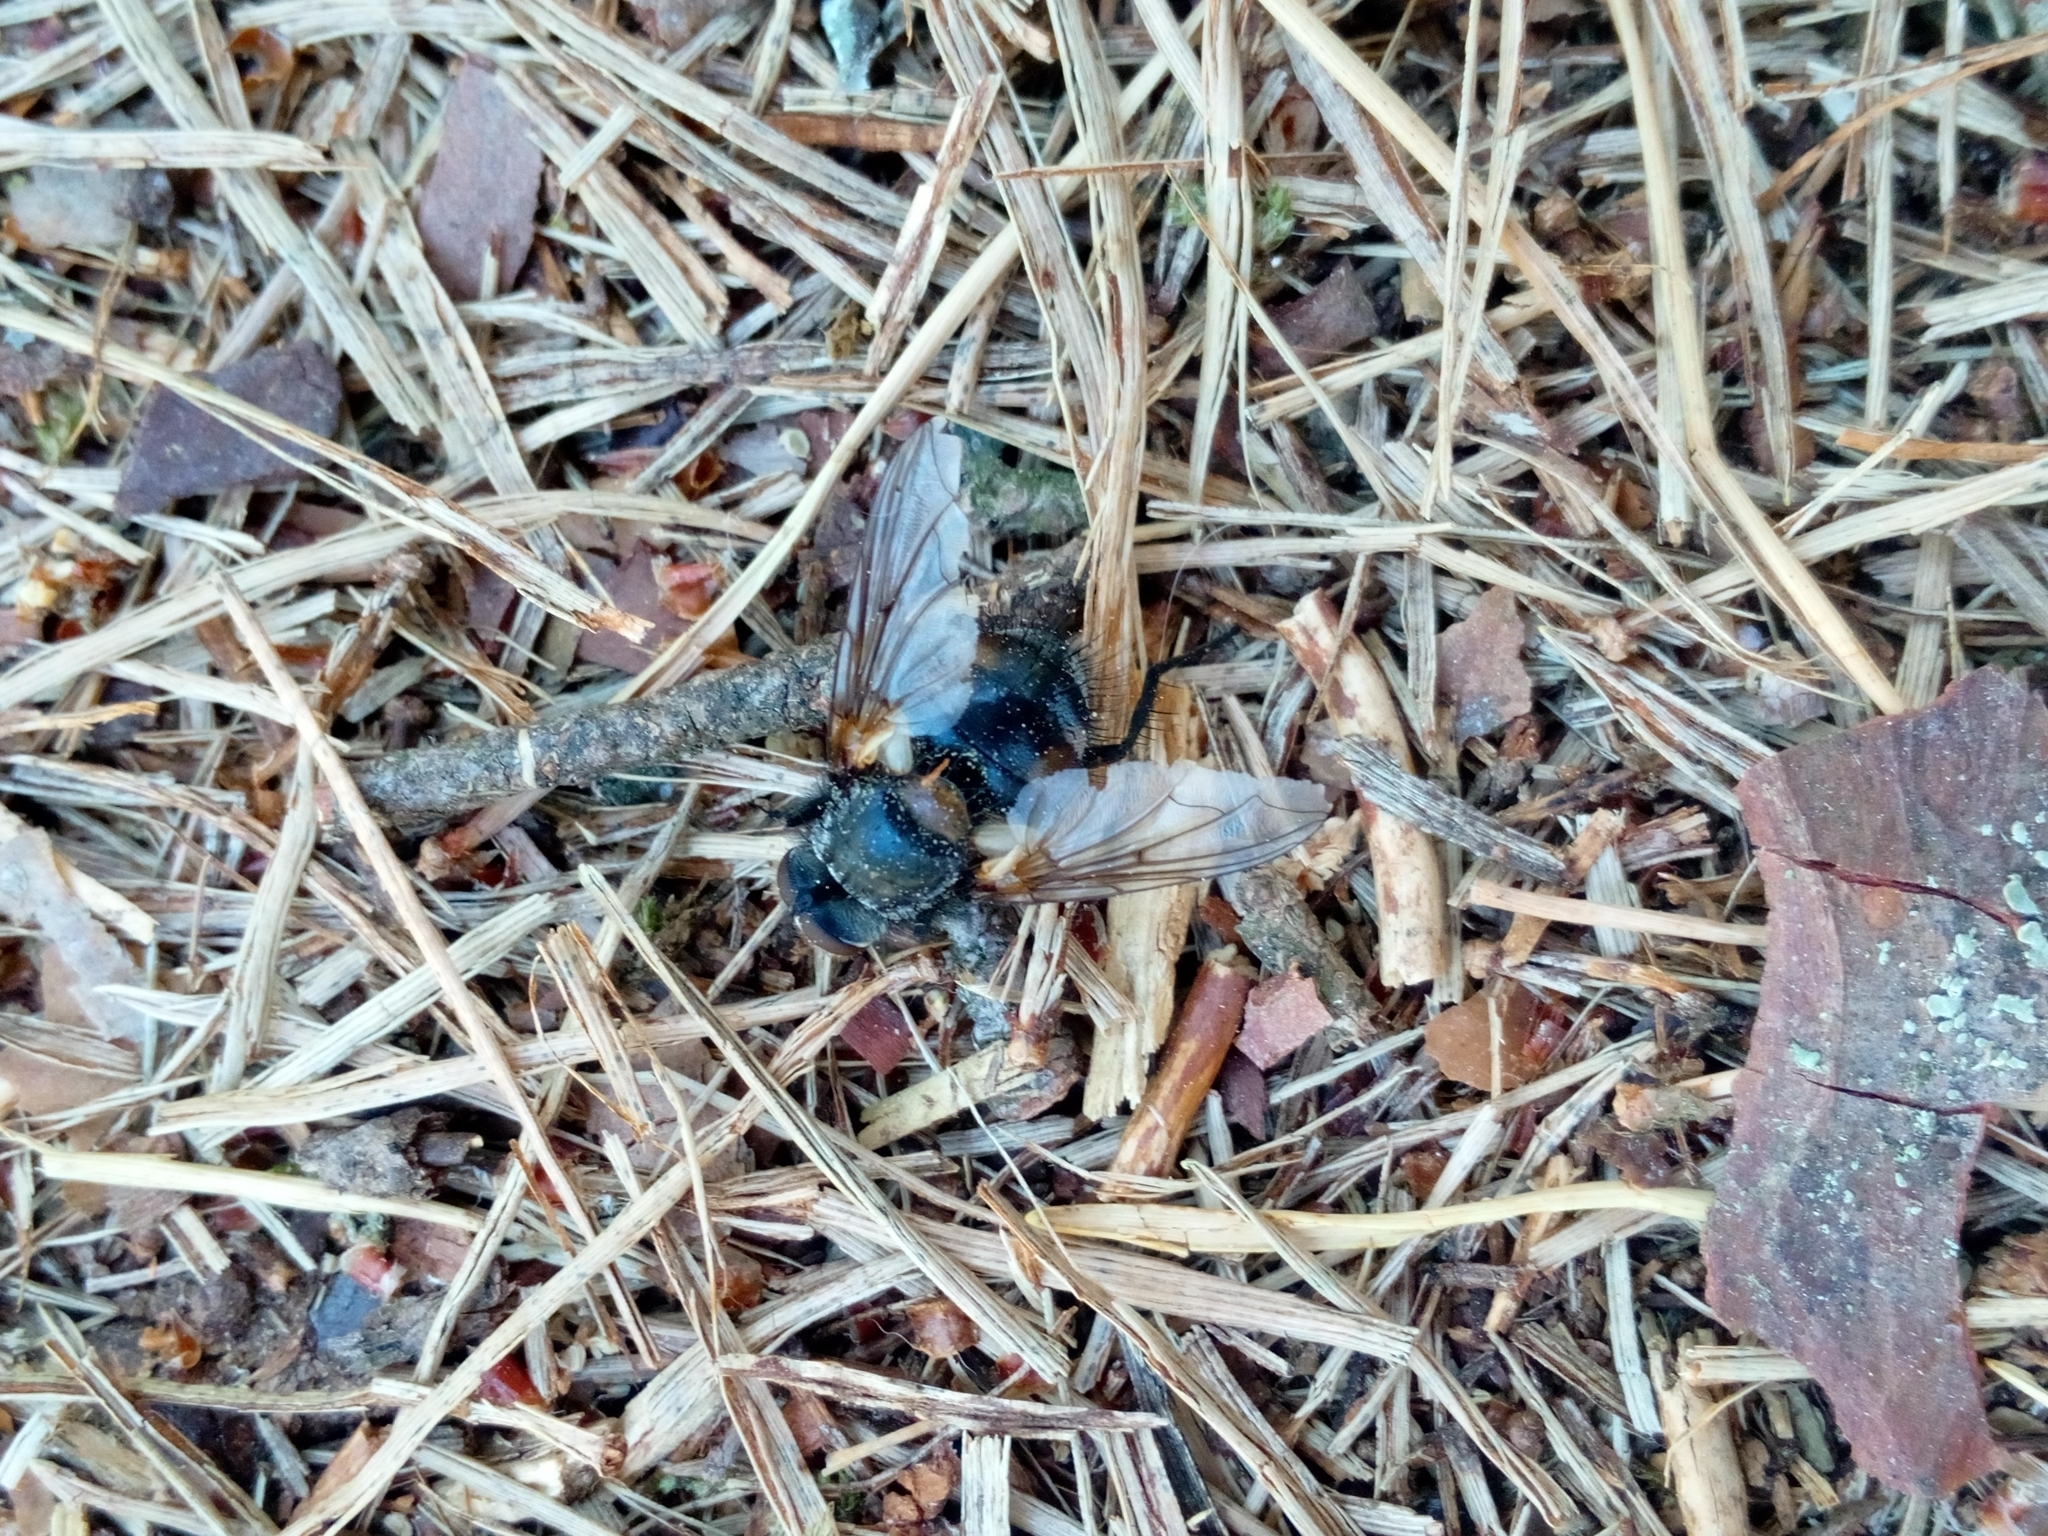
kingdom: Animalia
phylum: Arthropoda
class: Insecta
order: Diptera
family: Tachinidae
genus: Panzeria
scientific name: Panzeria rudis
